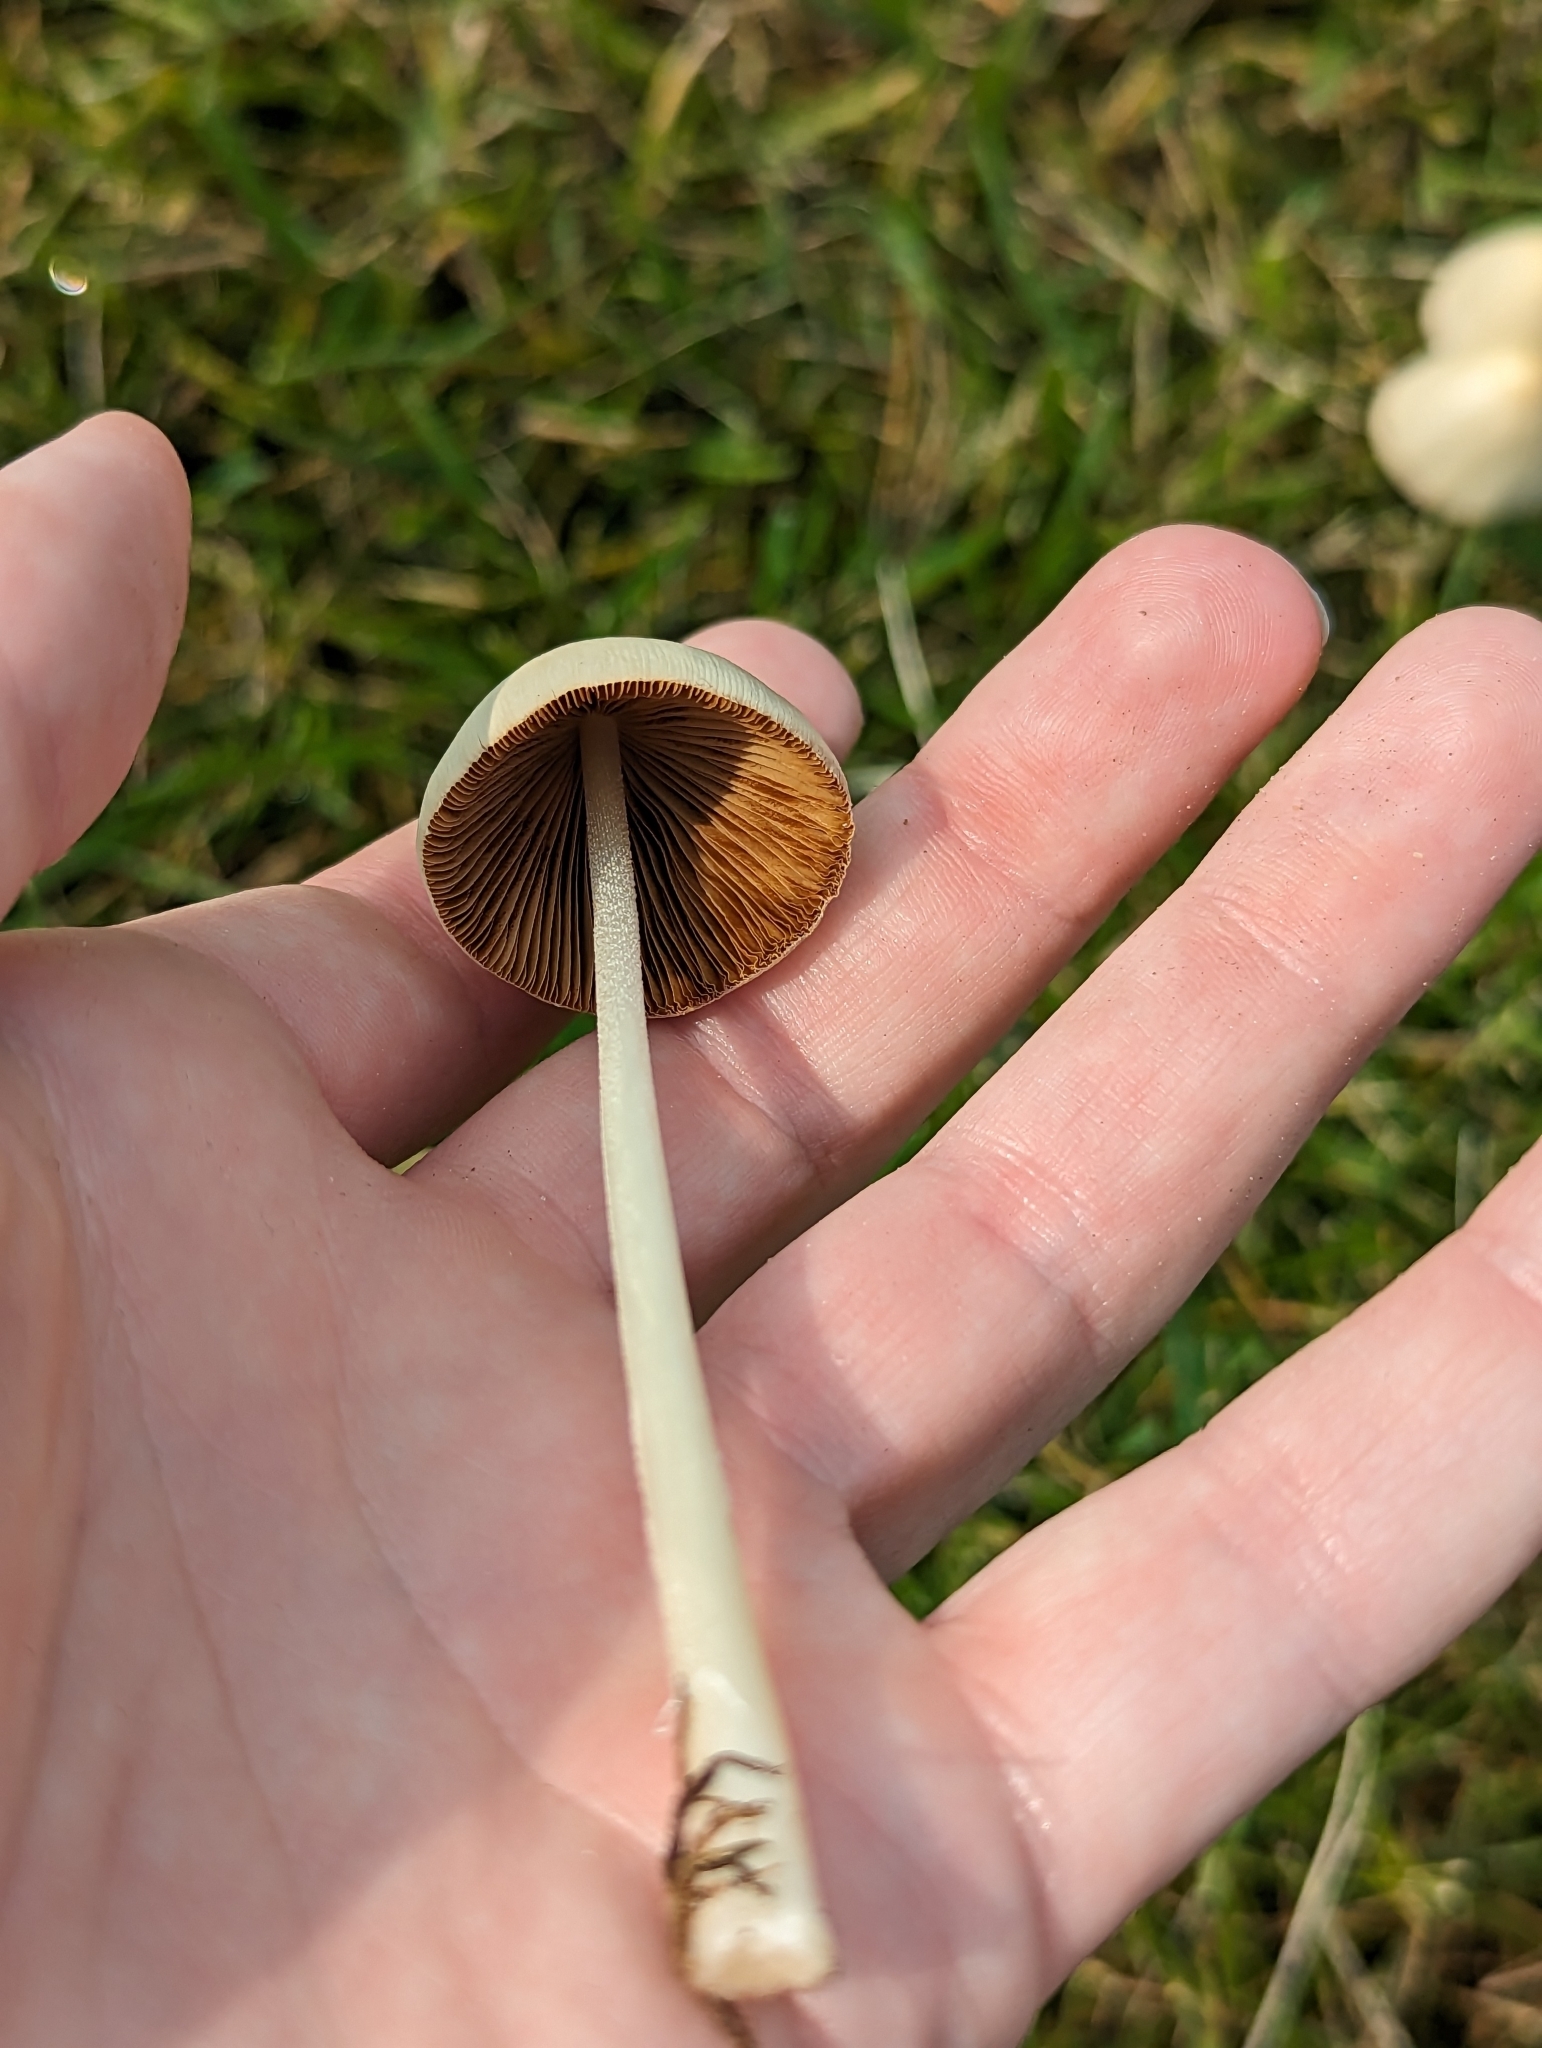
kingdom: Fungi
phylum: Basidiomycota
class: Agaricomycetes
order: Agaricales
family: Bolbitiaceae
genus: Conocybe
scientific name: Conocybe apala
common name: Milky conecap
